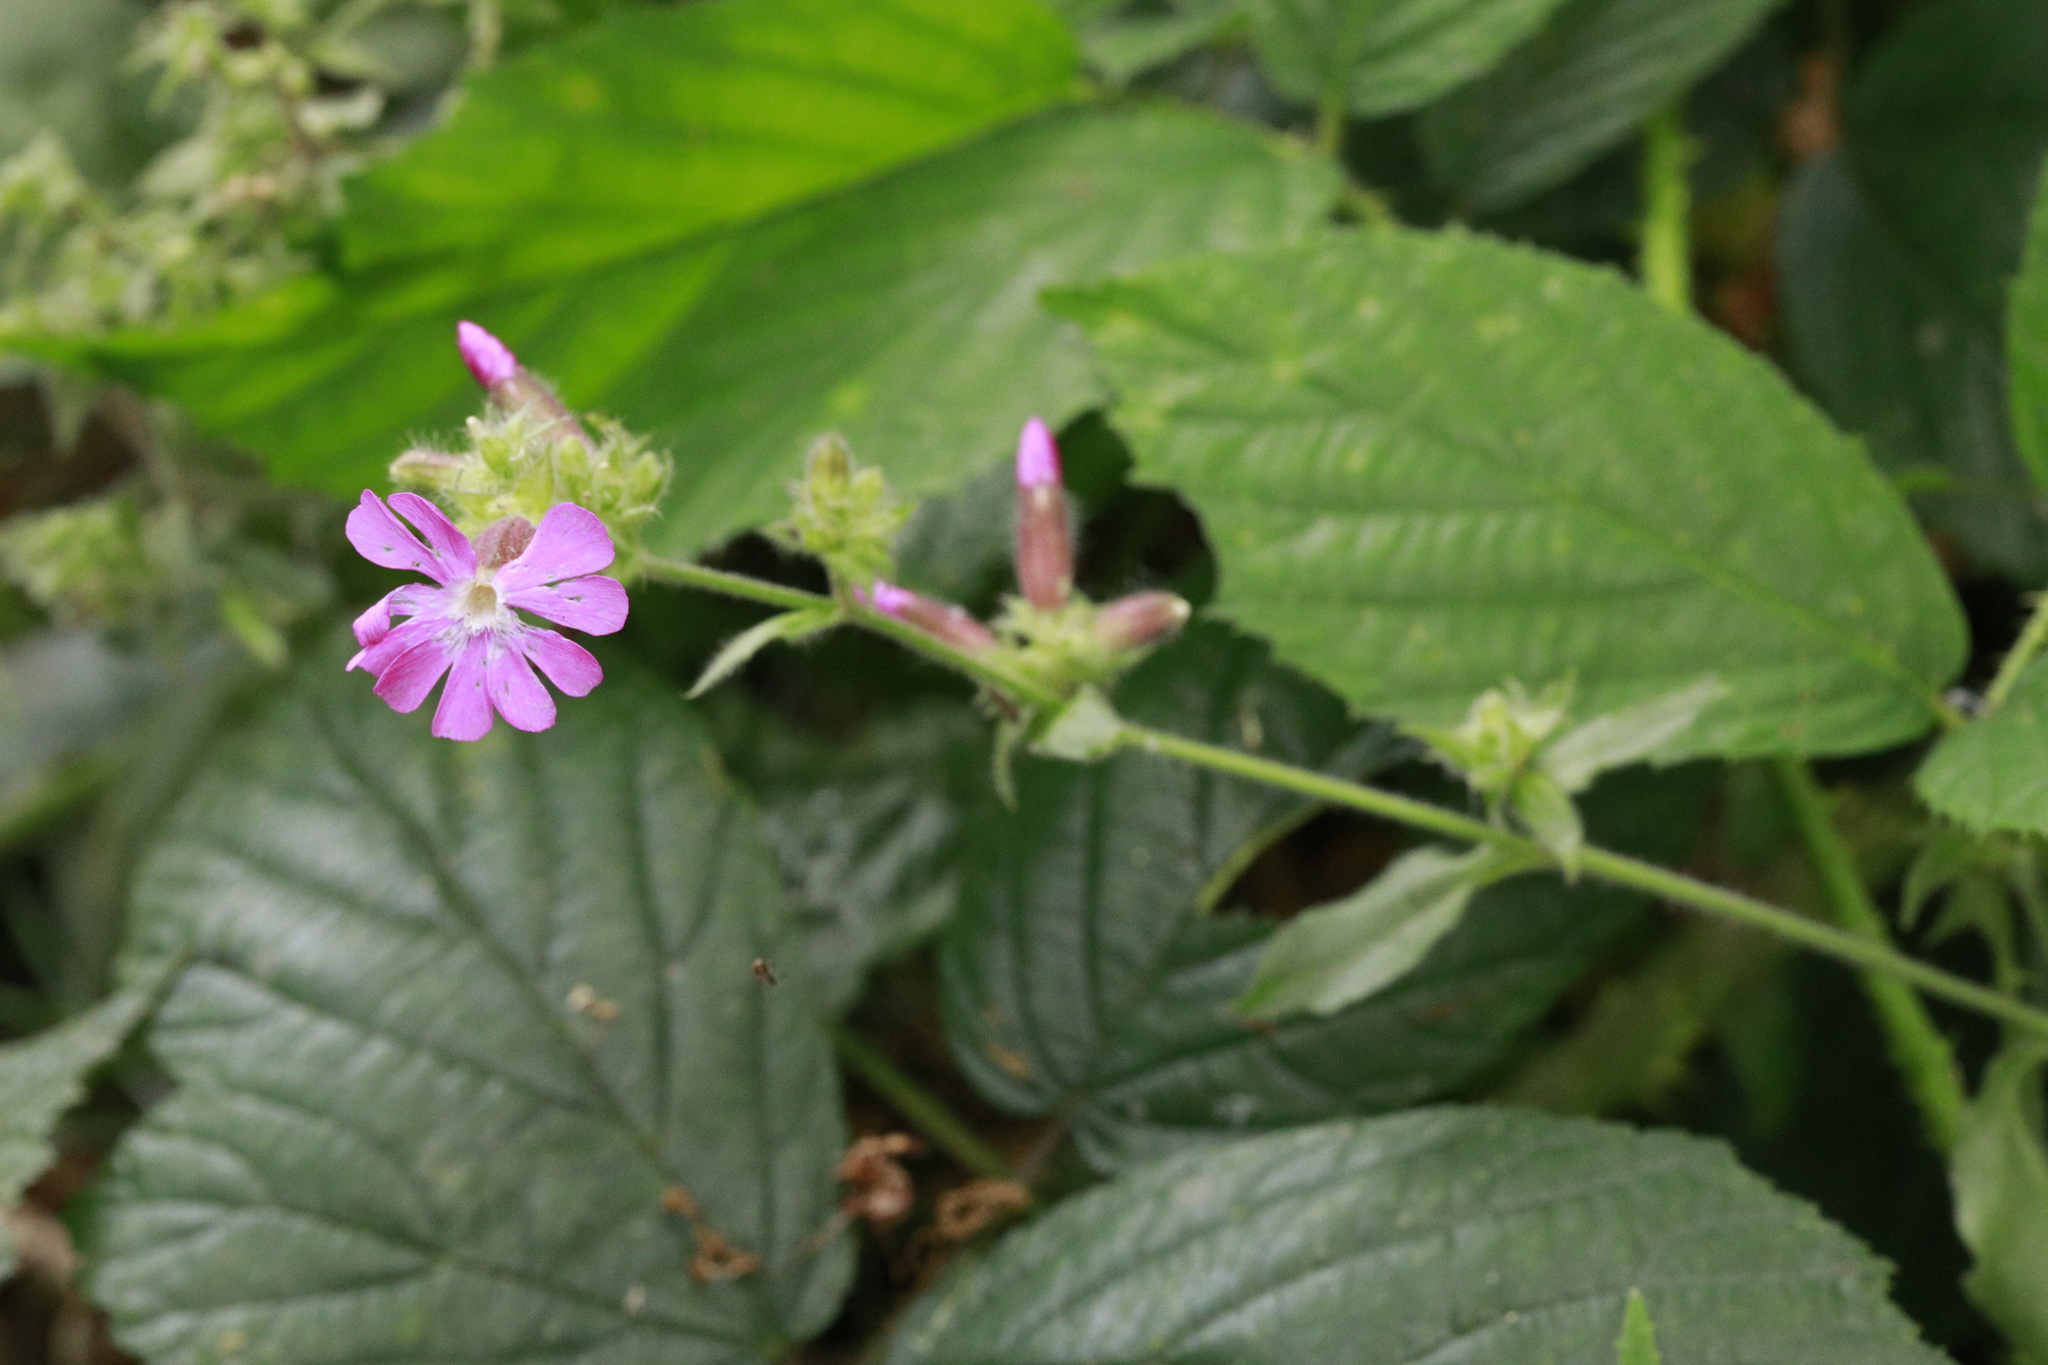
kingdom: Plantae
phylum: Tracheophyta
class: Magnoliopsida
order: Caryophyllales
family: Caryophyllaceae
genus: Silene
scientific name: Silene dioica
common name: Red campion
